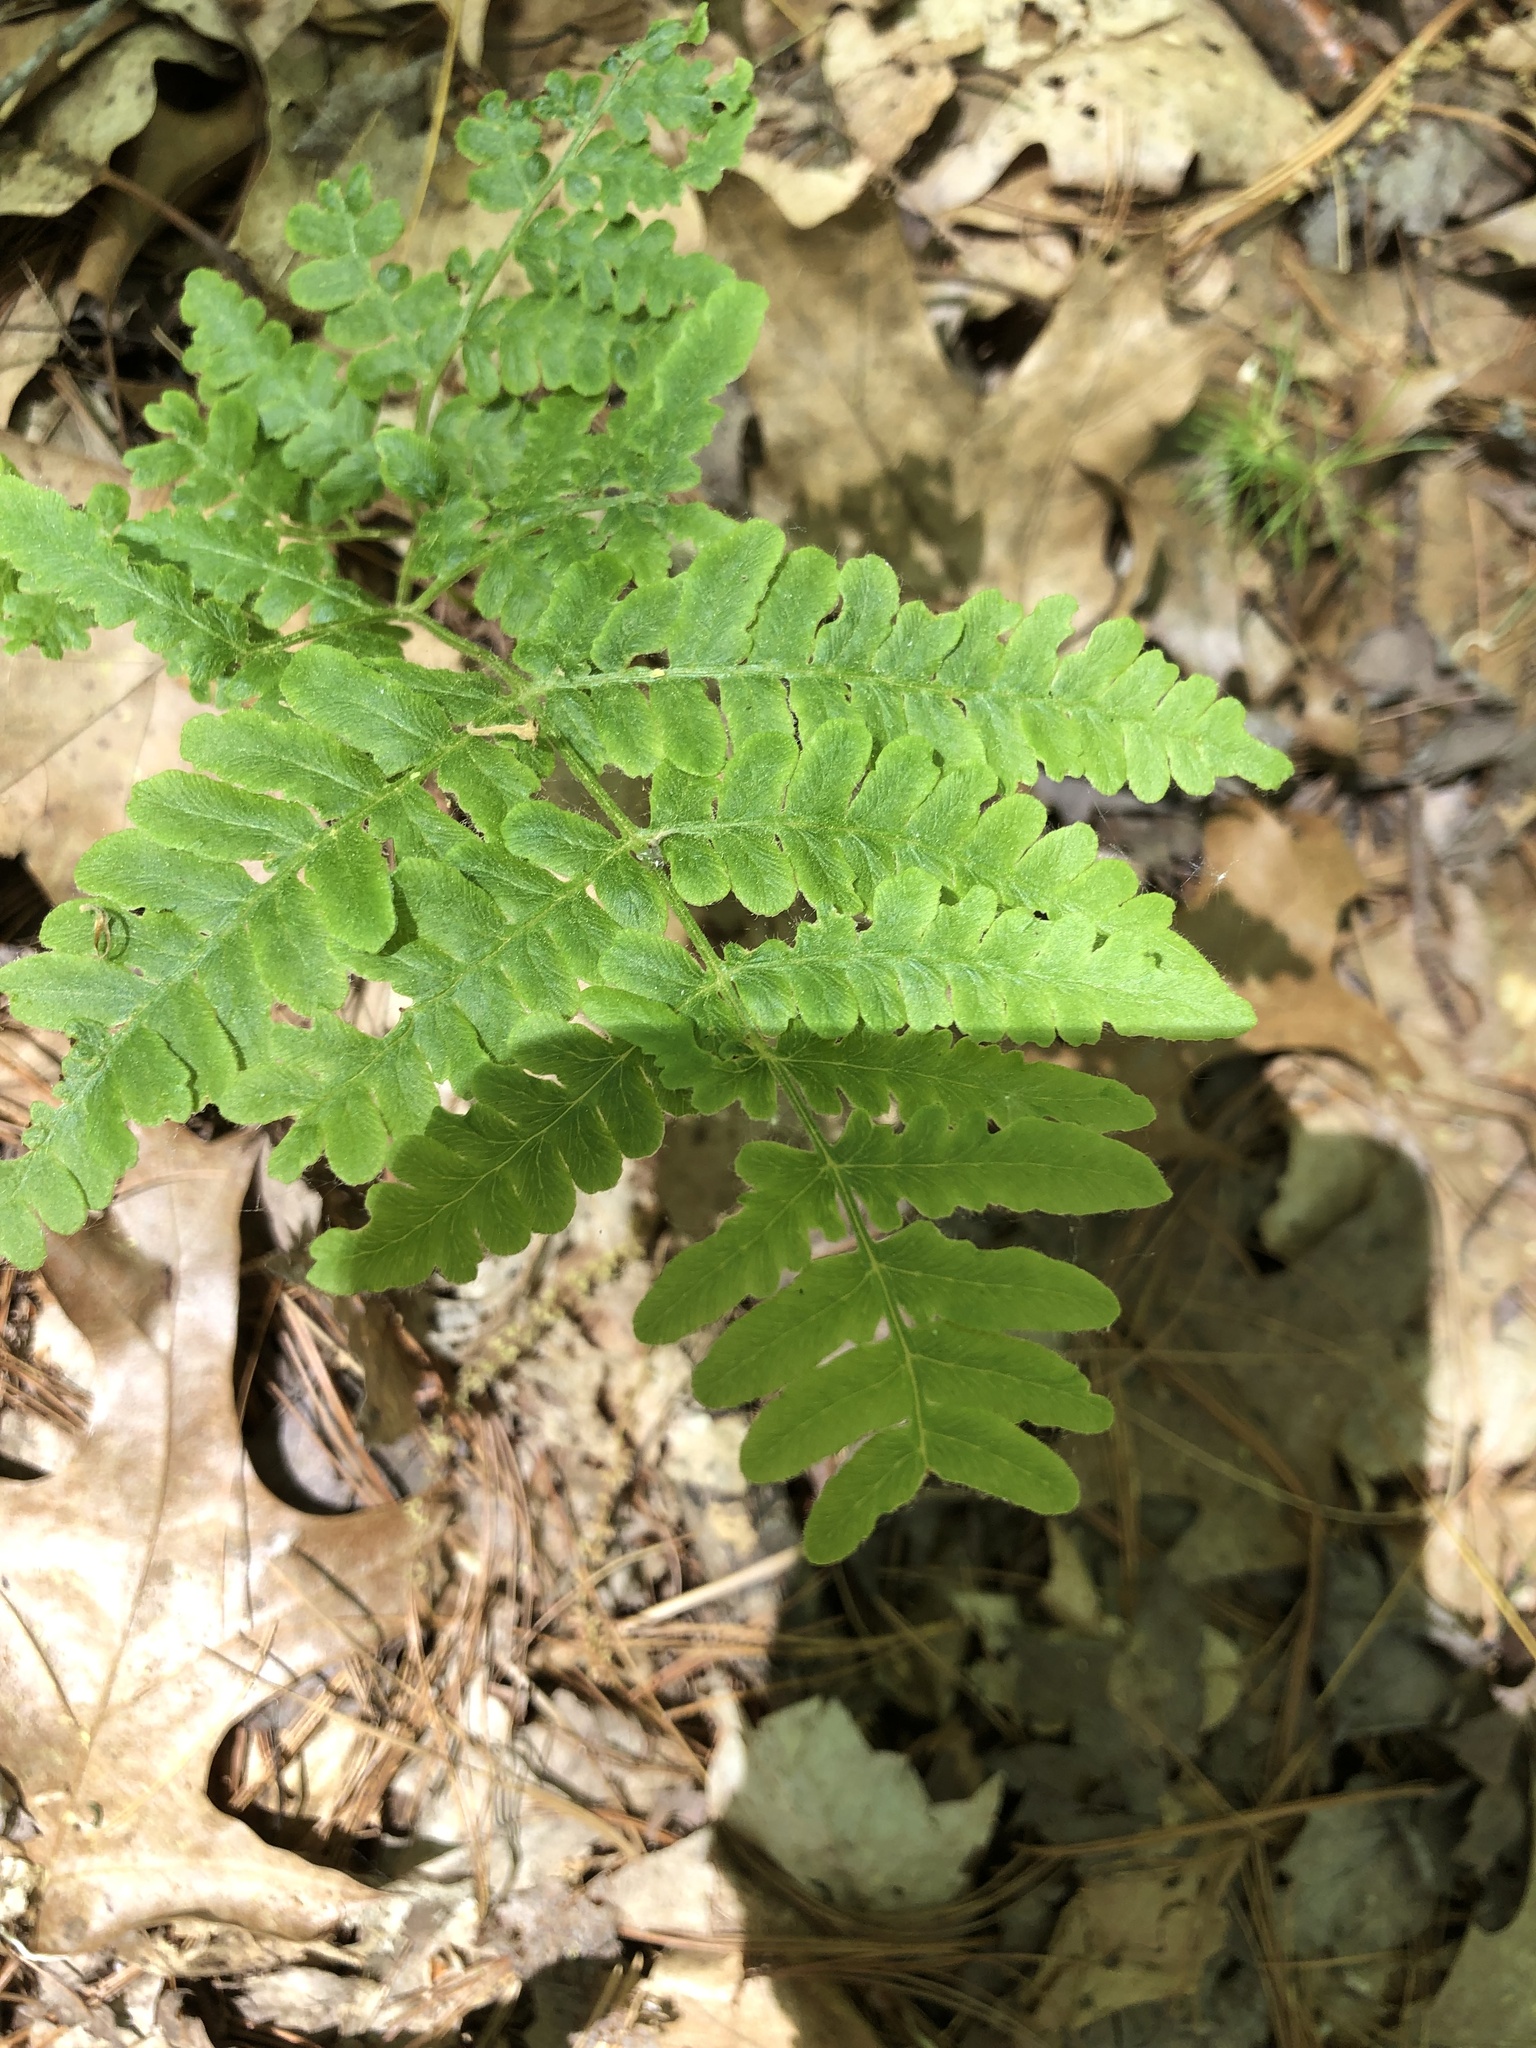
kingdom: Plantae
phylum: Tracheophyta
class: Polypodiopsida
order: Polypodiales
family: Dennstaedtiaceae
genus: Pteridium
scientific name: Pteridium aquilinum
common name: Bracken
